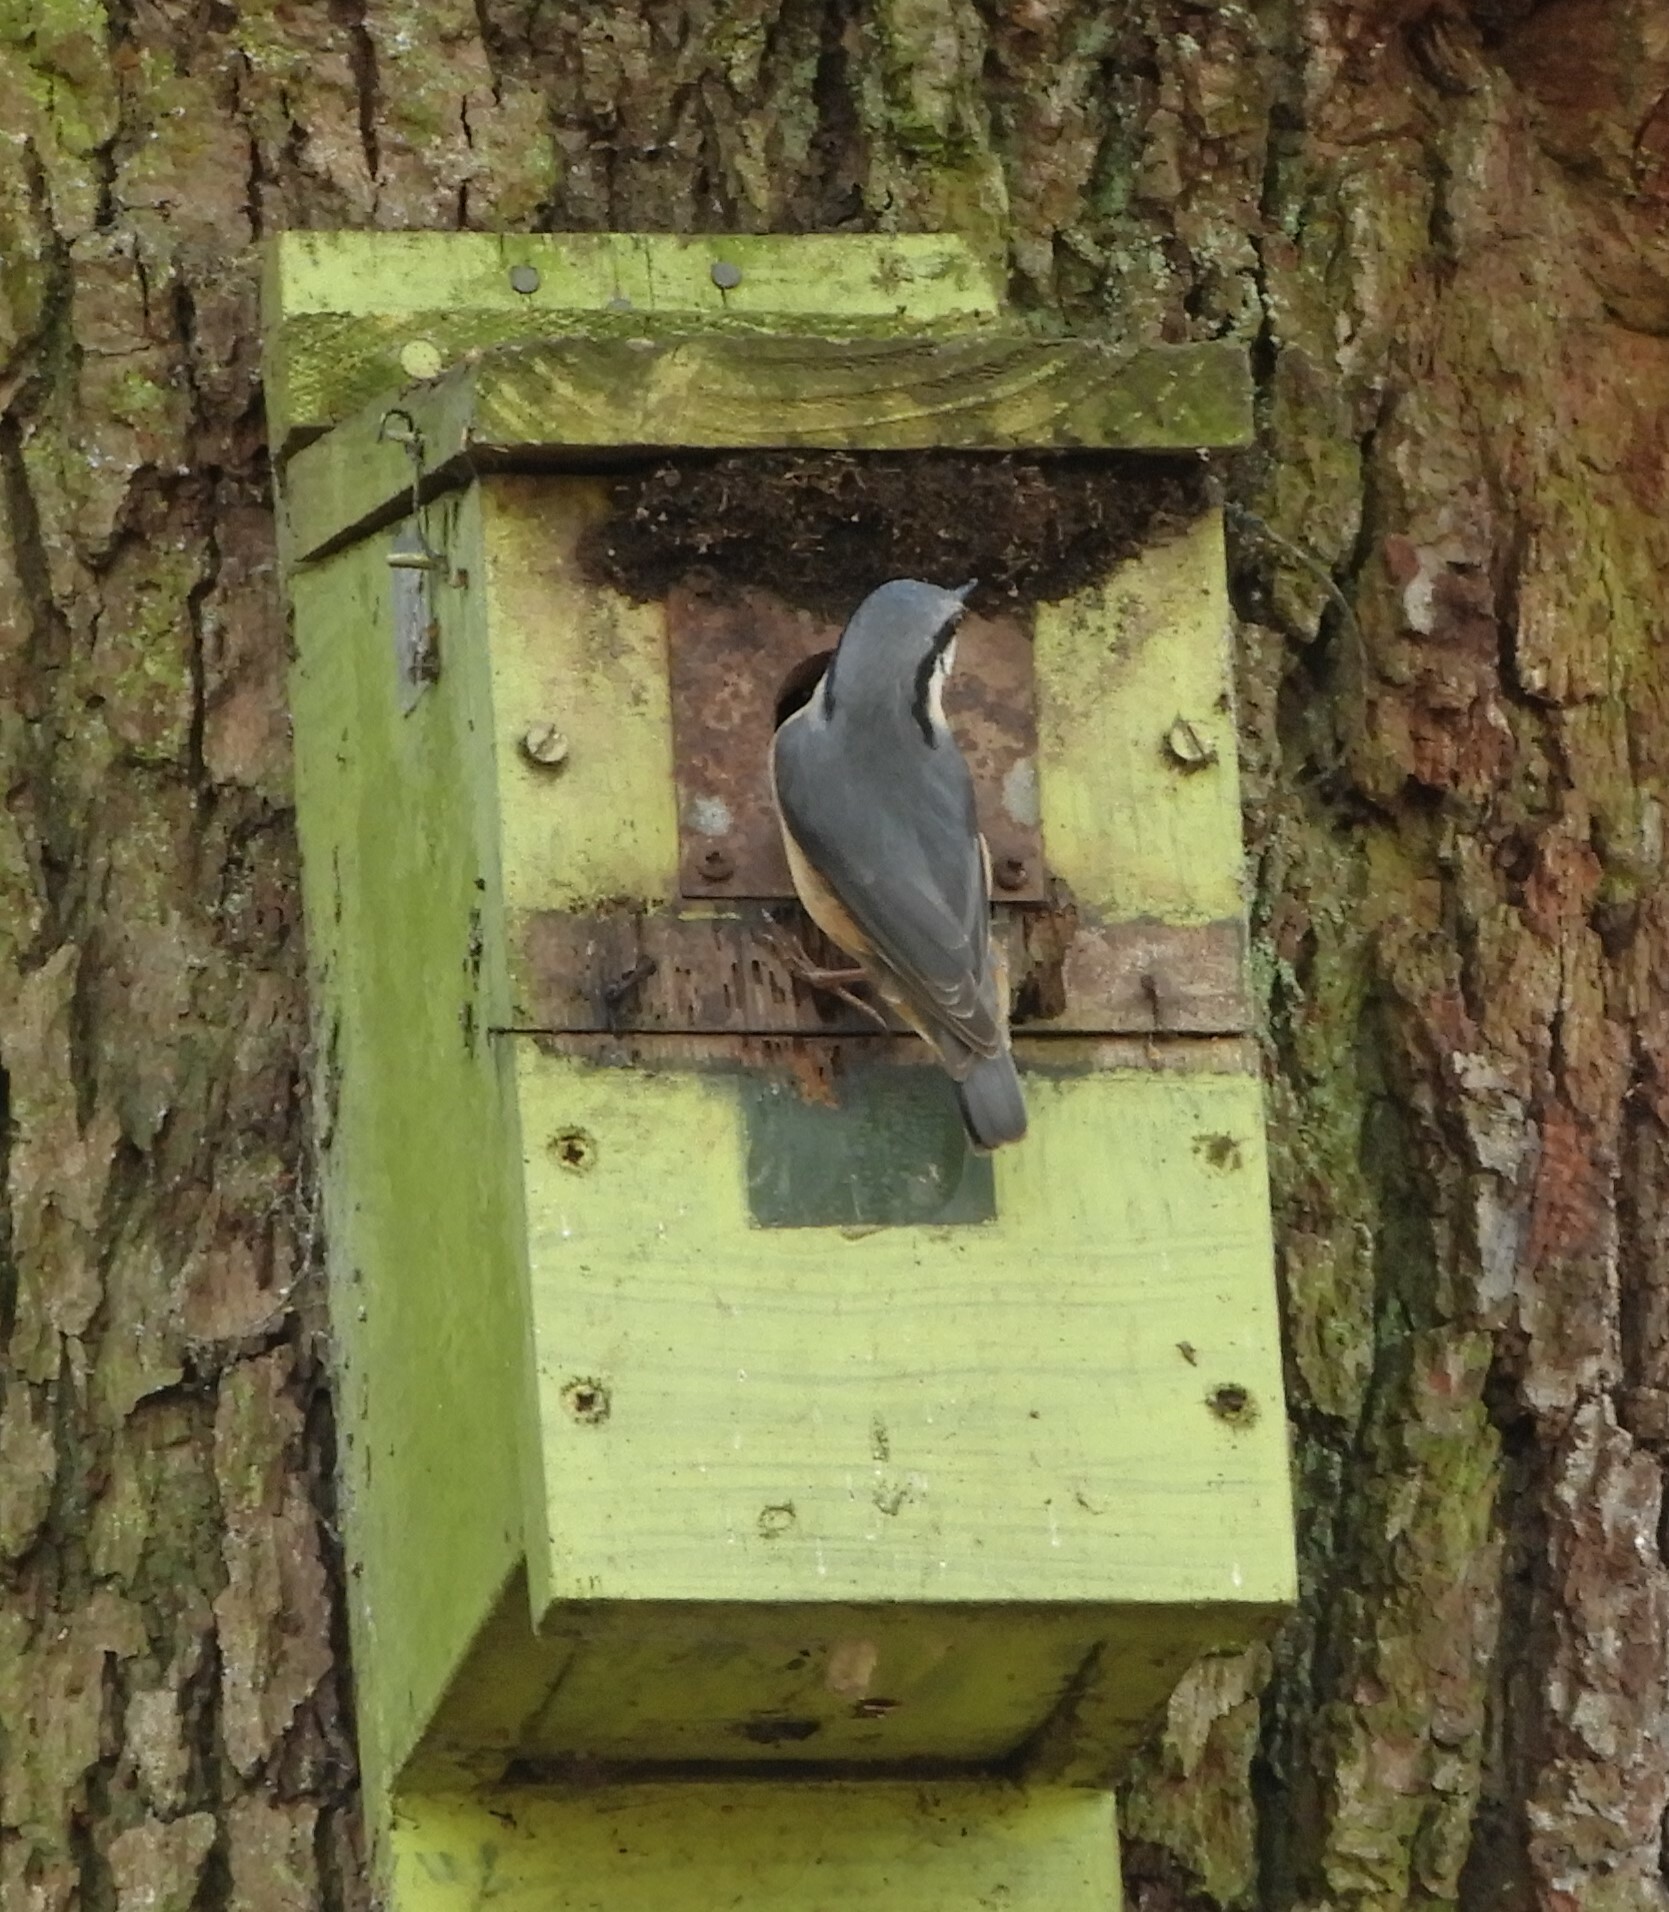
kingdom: Animalia
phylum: Chordata
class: Aves
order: Passeriformes
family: Sittidae
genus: Sitta
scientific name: Sitta europaea
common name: Eurasian nuthatch
